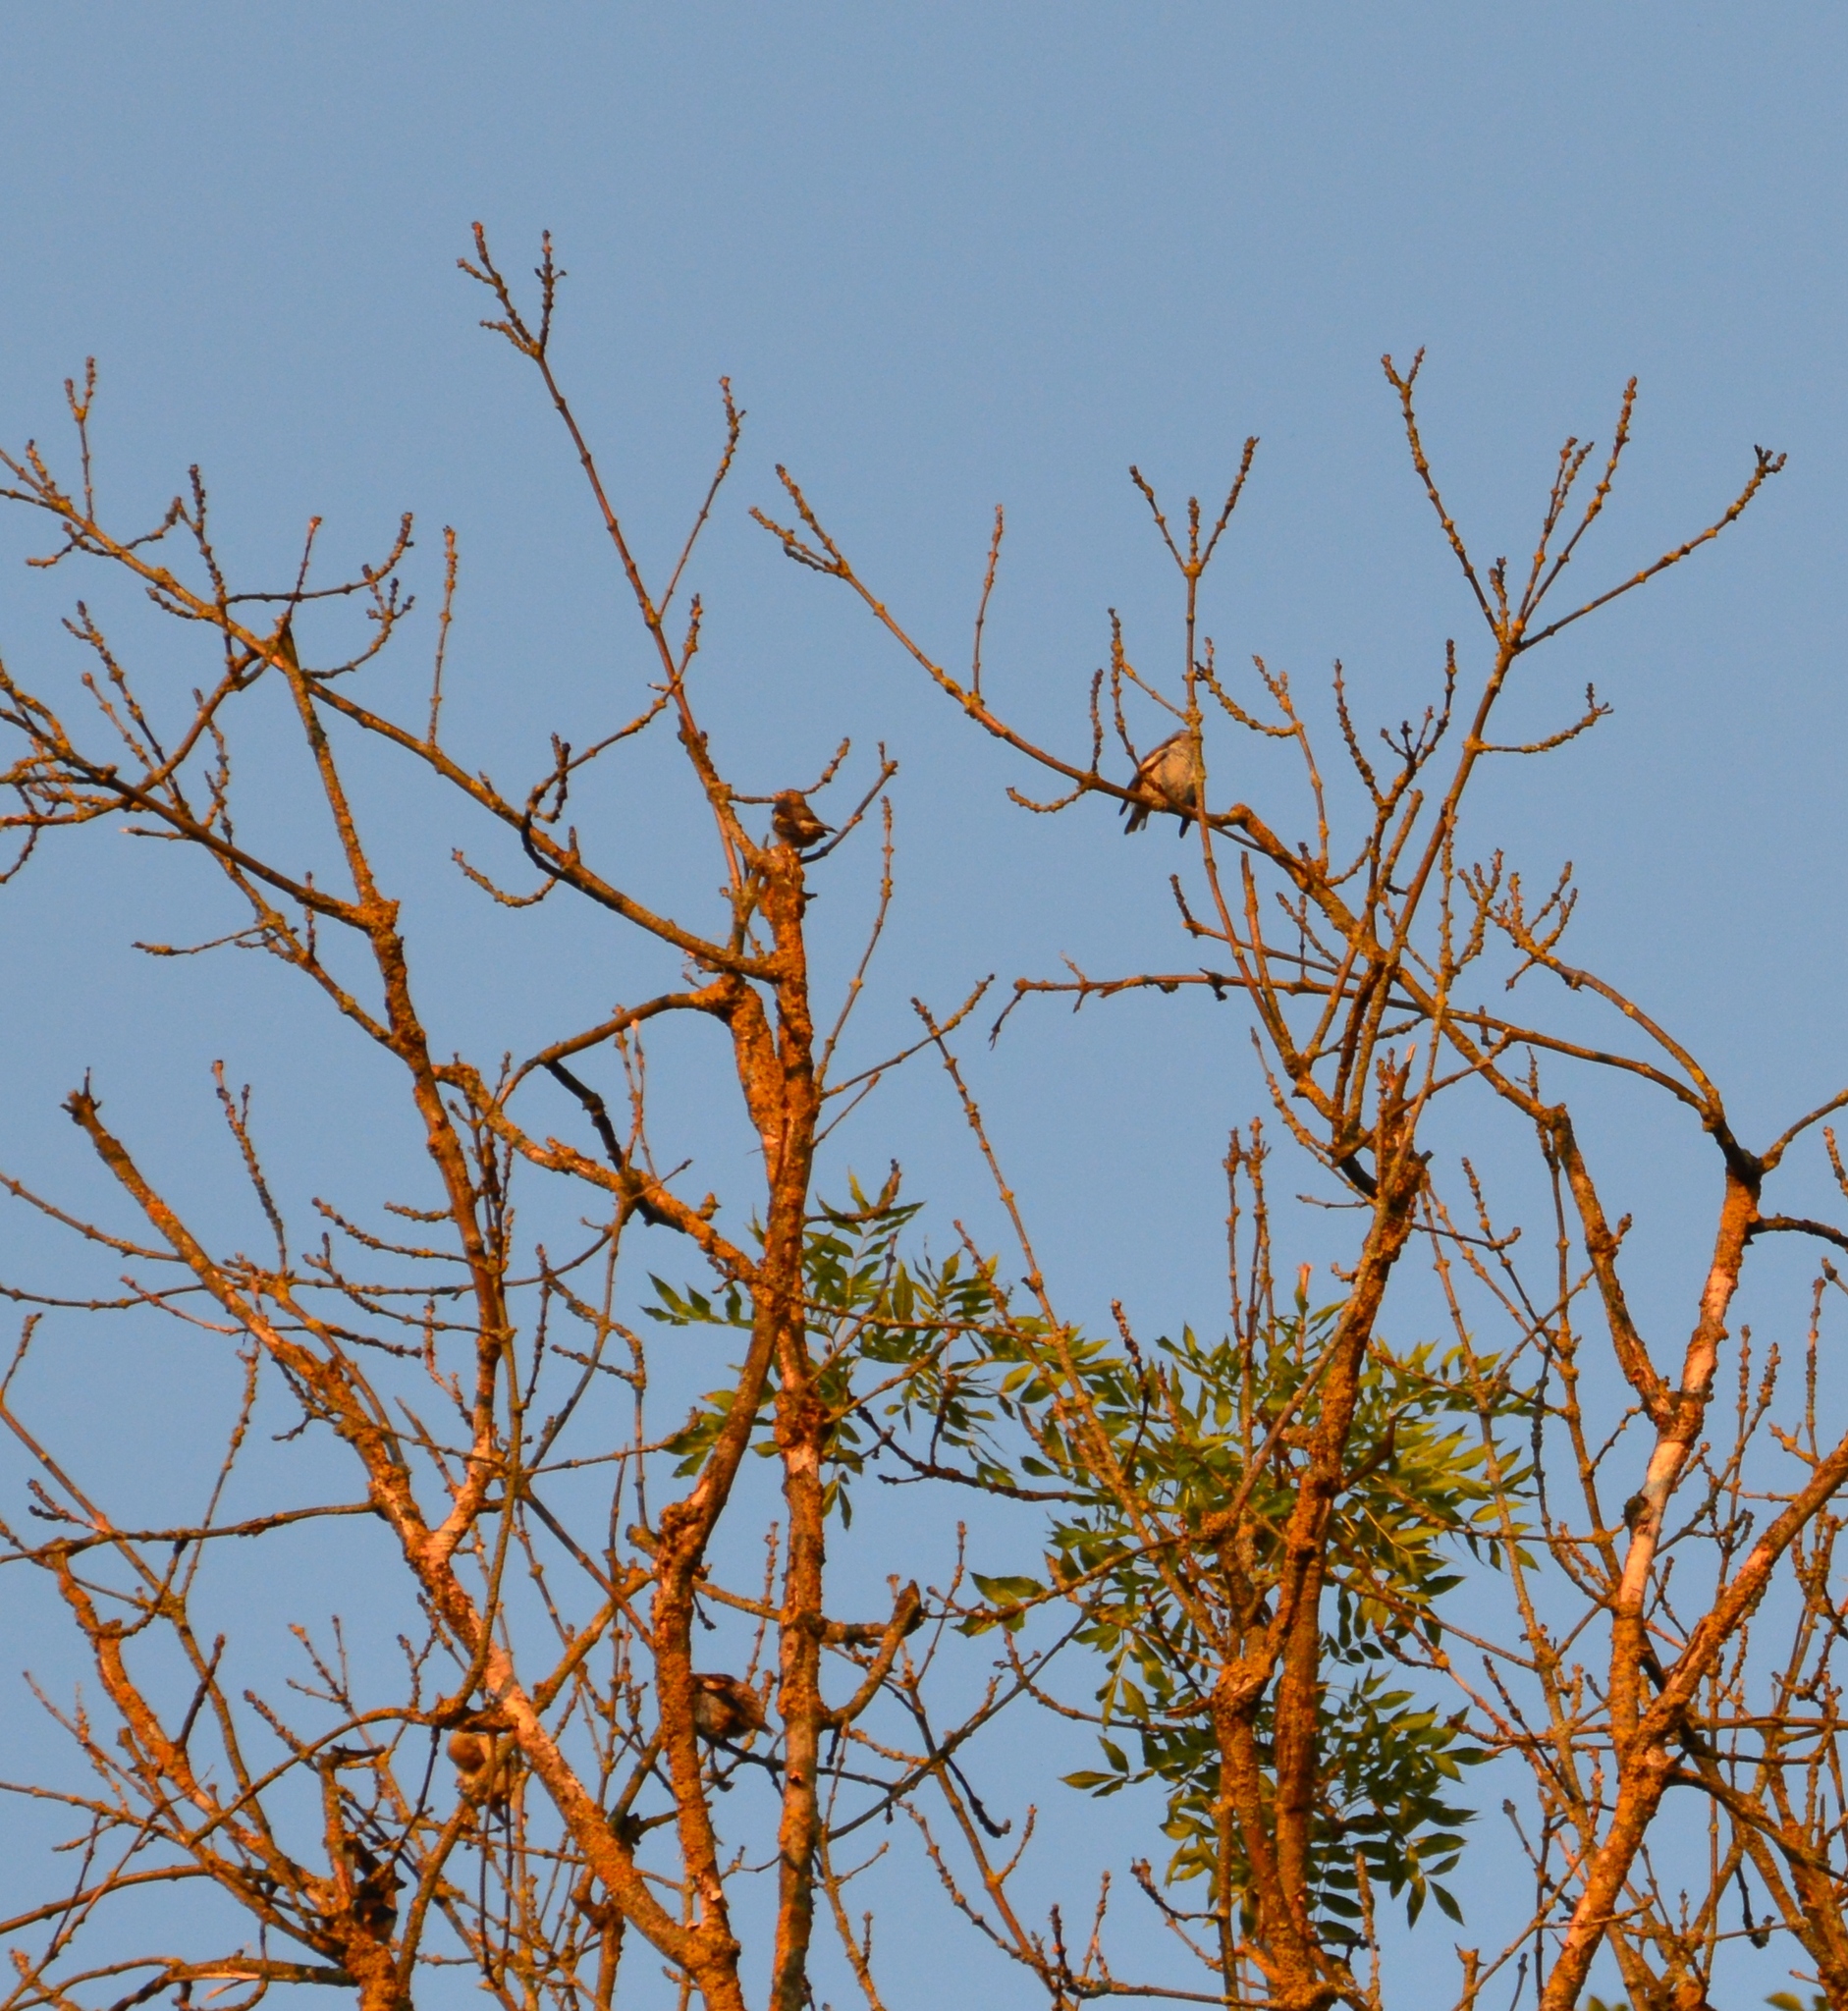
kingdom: Animalia
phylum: Chordata
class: Aves
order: Passeriformes
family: Fringillidae
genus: Fringilla
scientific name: Fringilla coelebs
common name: Common chaffinch
